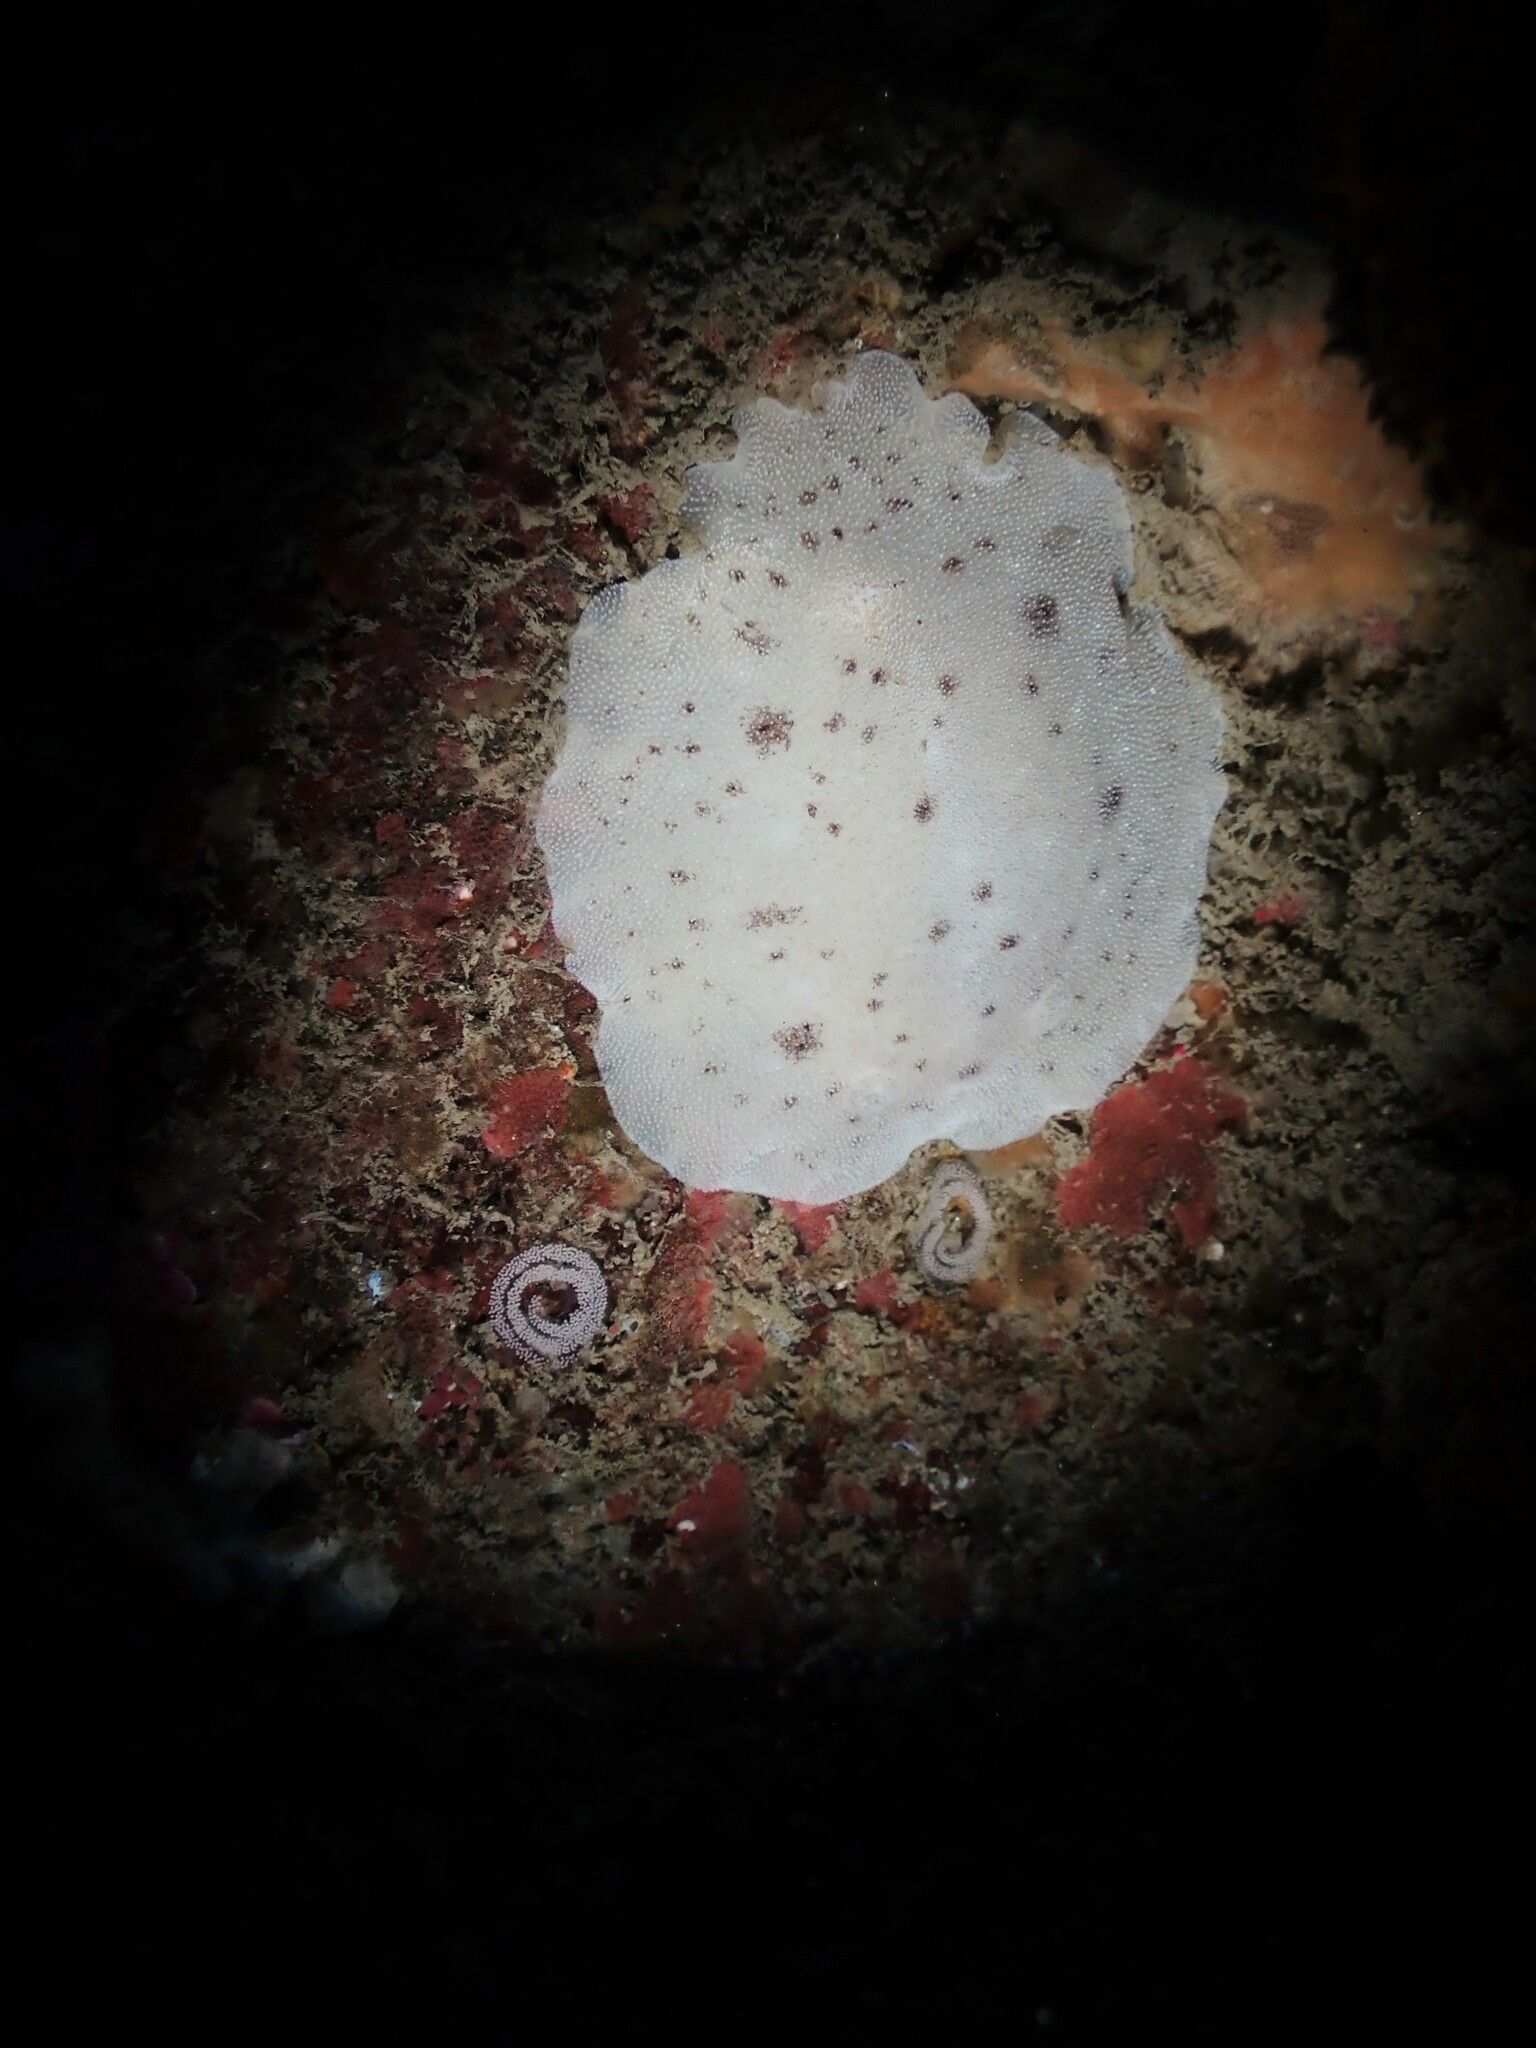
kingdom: Animalia
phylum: Mollusca
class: Gastropoda
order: Nudibranchia
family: Discodorididae
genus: Alloiodoris
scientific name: Alloiodoris lanuginata
